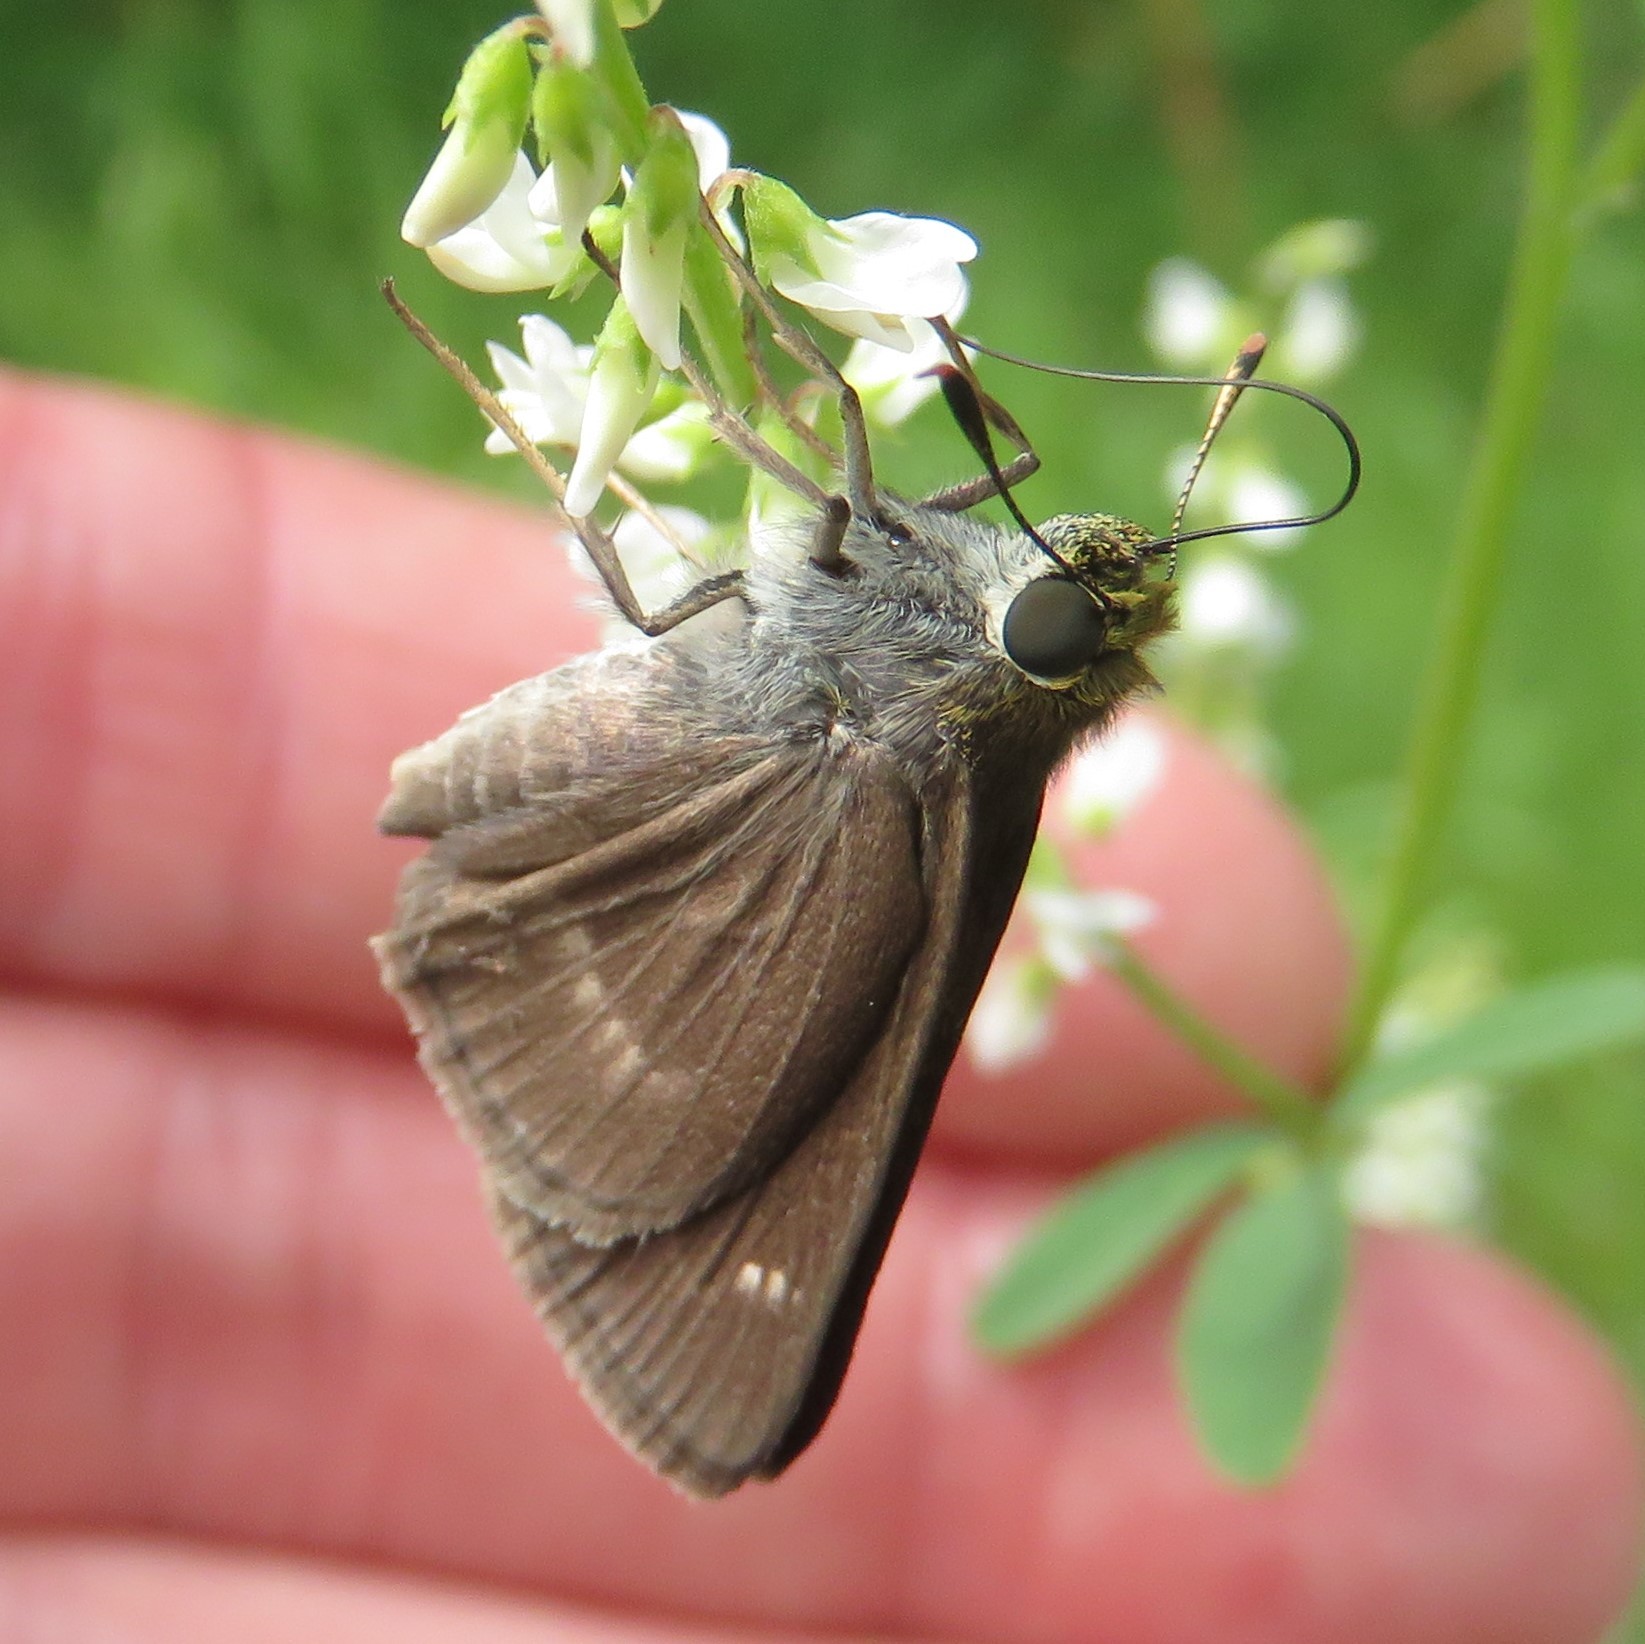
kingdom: Animalia
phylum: Arthropoda
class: Insecta
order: Lepidoptera
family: Hesperiidae
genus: Euphyes
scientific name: Euphyes vestris
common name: Dun skipper
